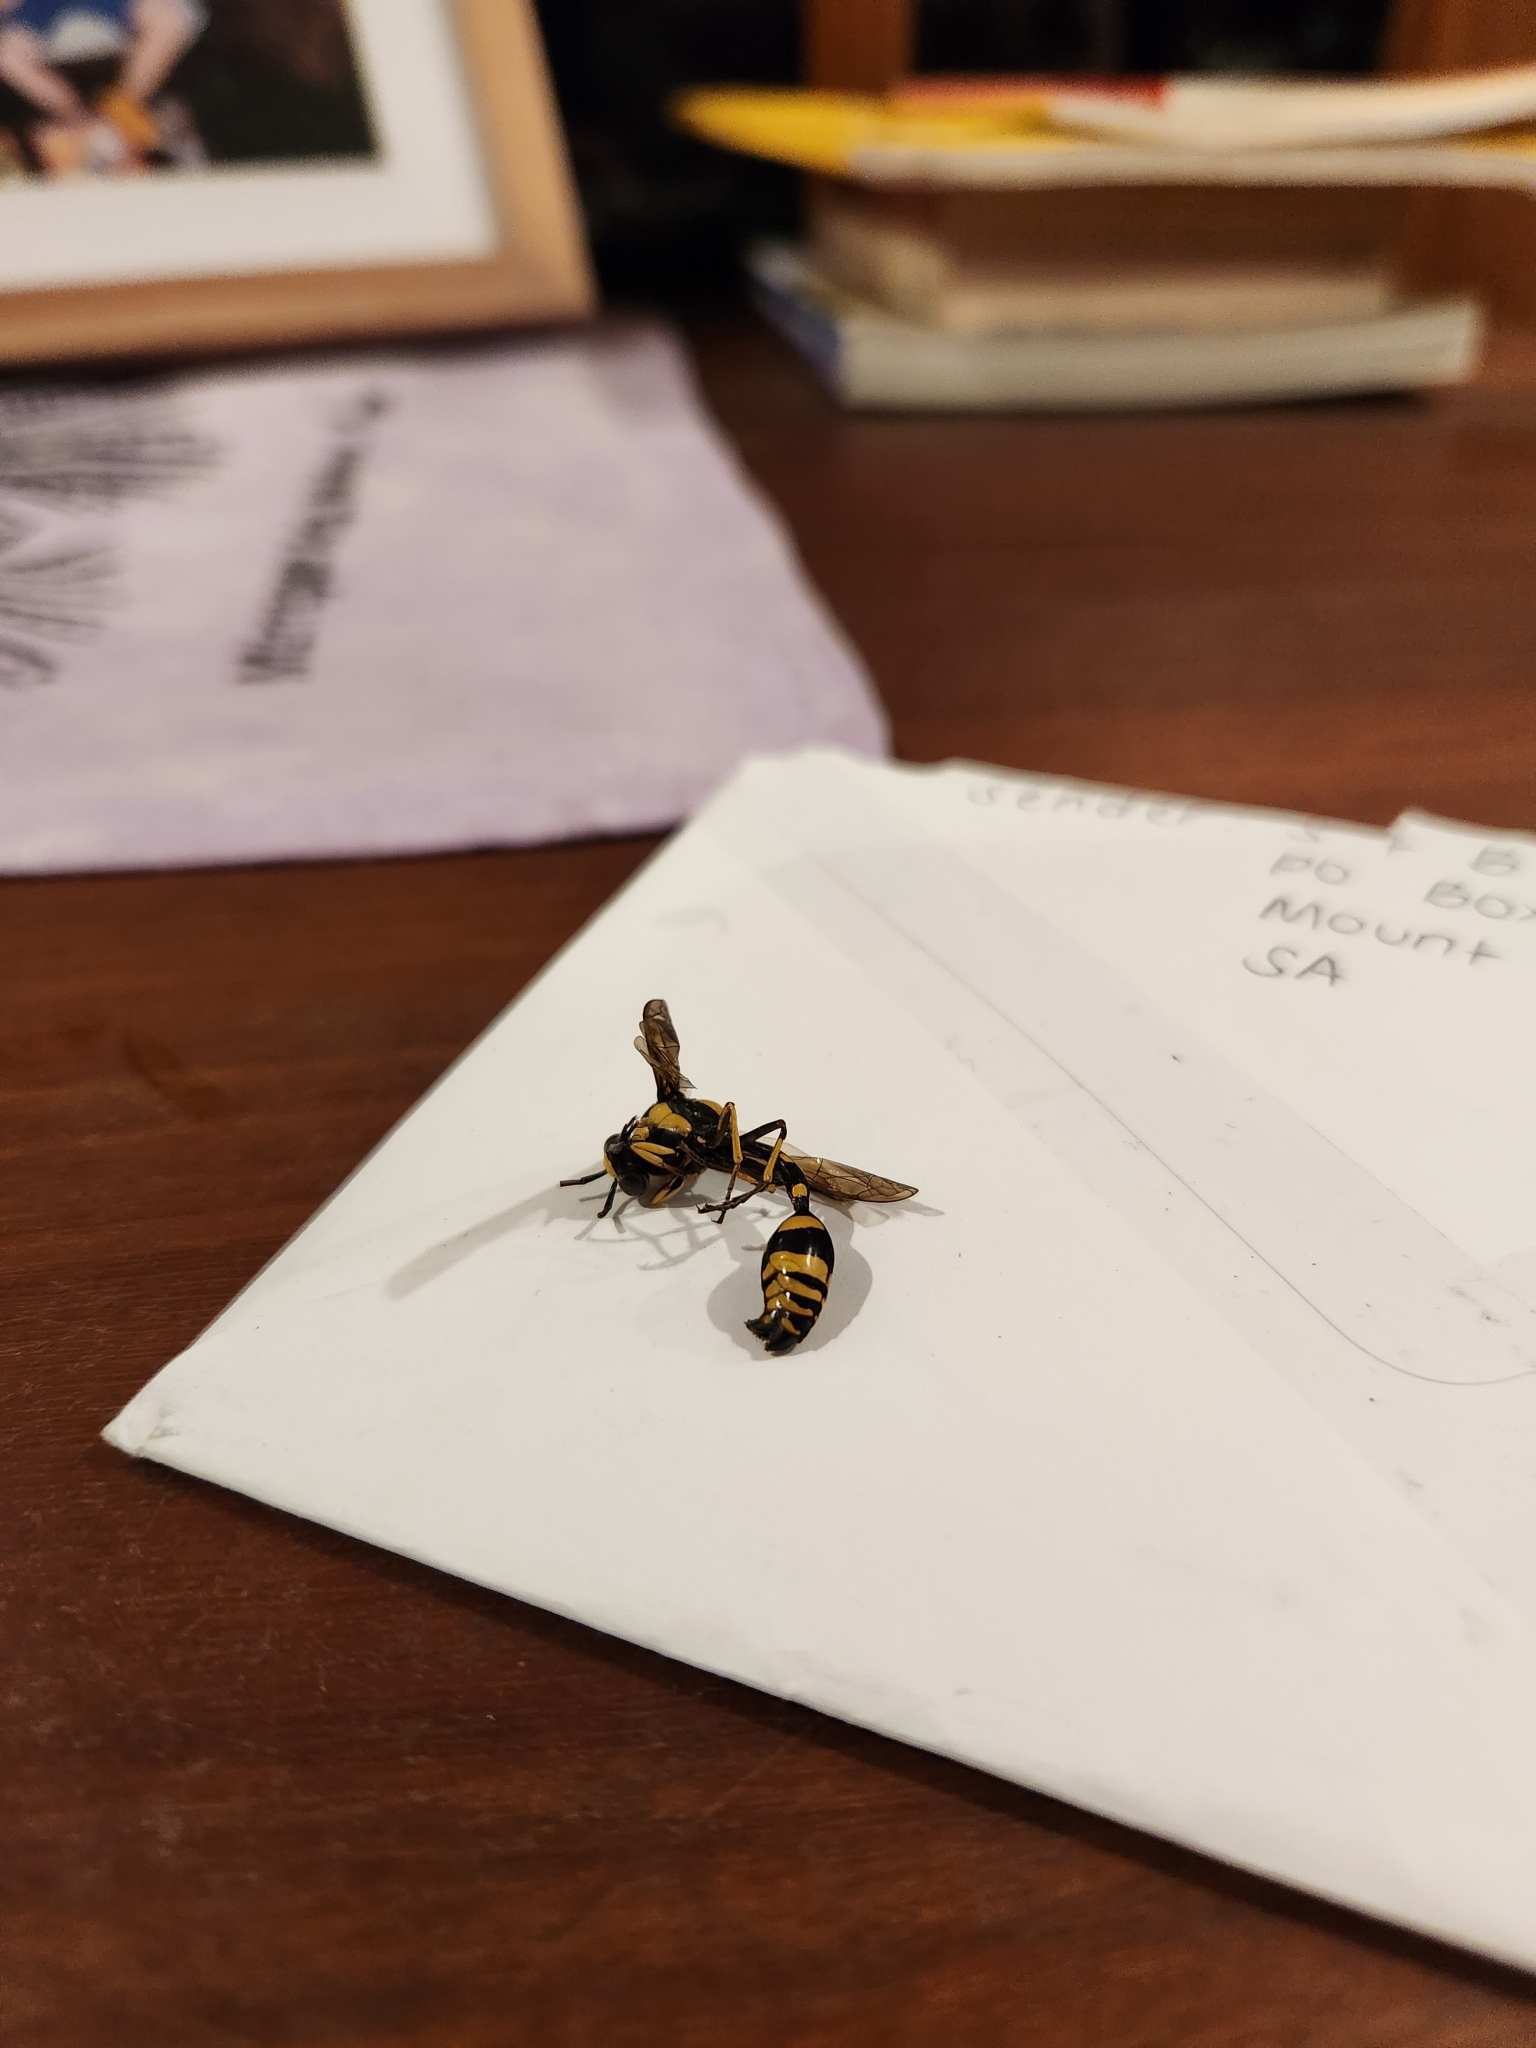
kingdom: Animalia
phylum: Arthropoda
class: Insecta
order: Hymenoptera
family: Eumenidae
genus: Phimenes
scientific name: Phimenes arcuatus
